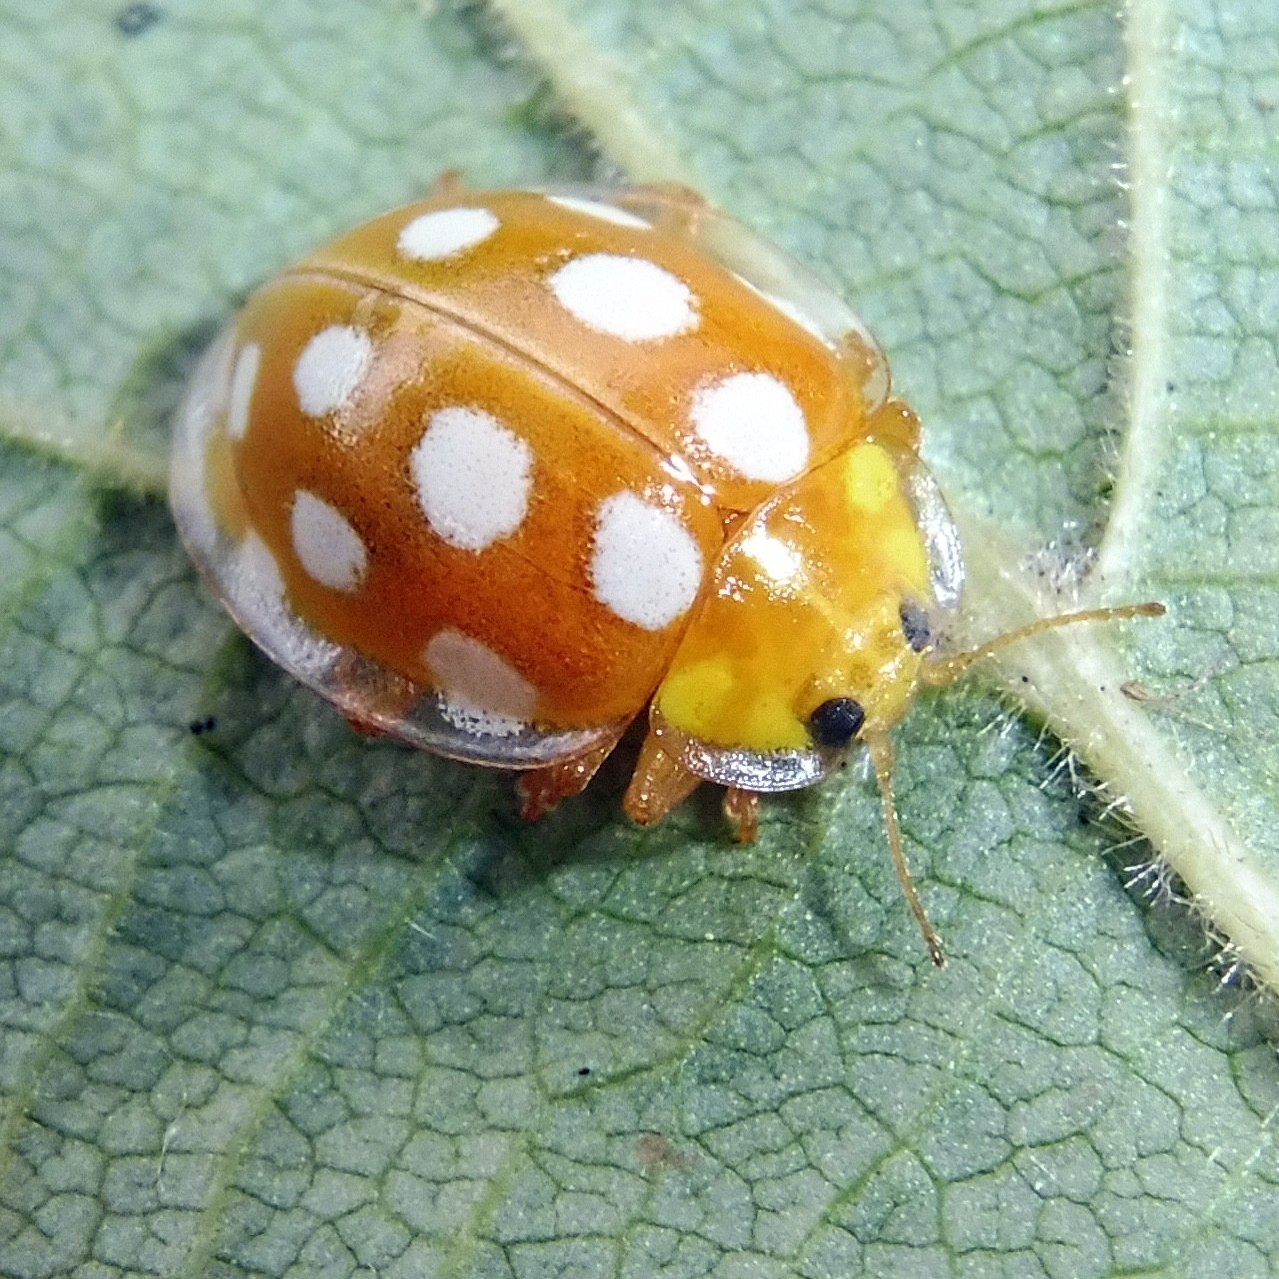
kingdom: Animalia
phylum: Arthropoda
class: Insecta
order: Coleoptera
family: Coccinellidae
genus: Halyzia
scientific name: Halyzia sedecimguttata
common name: Orange ladybird
